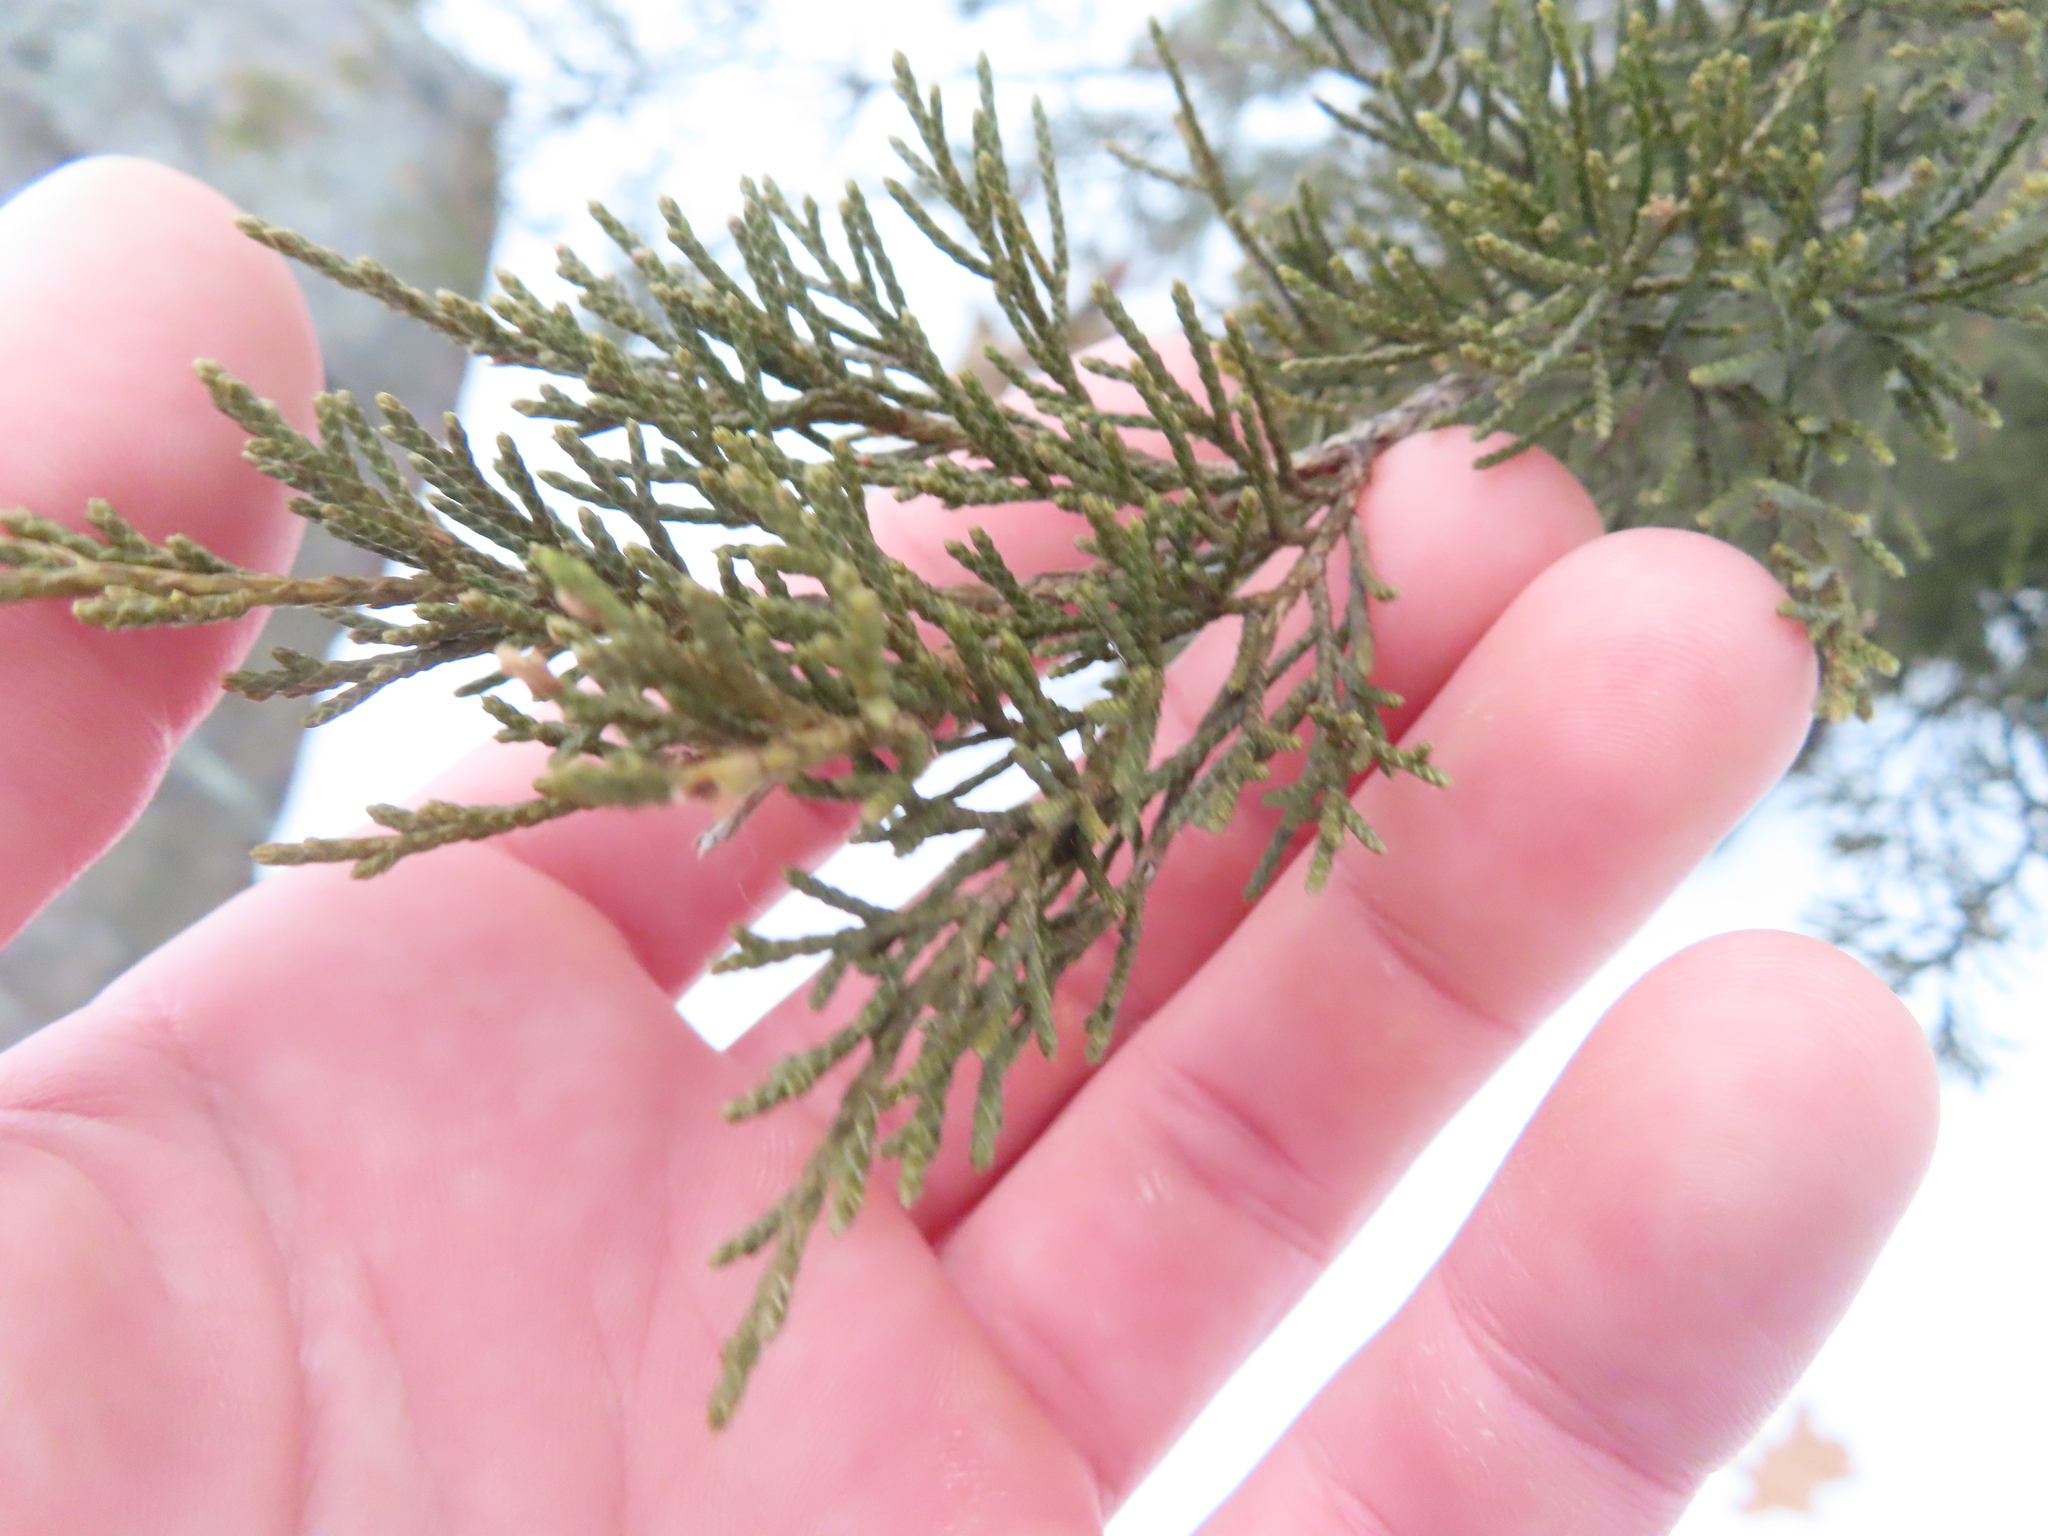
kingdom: Plantae
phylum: Tracheophyta
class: Pinopsida
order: Pinales
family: Cupressaceae
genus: Juniperus
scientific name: Juniperus virginiana
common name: Red juniper
